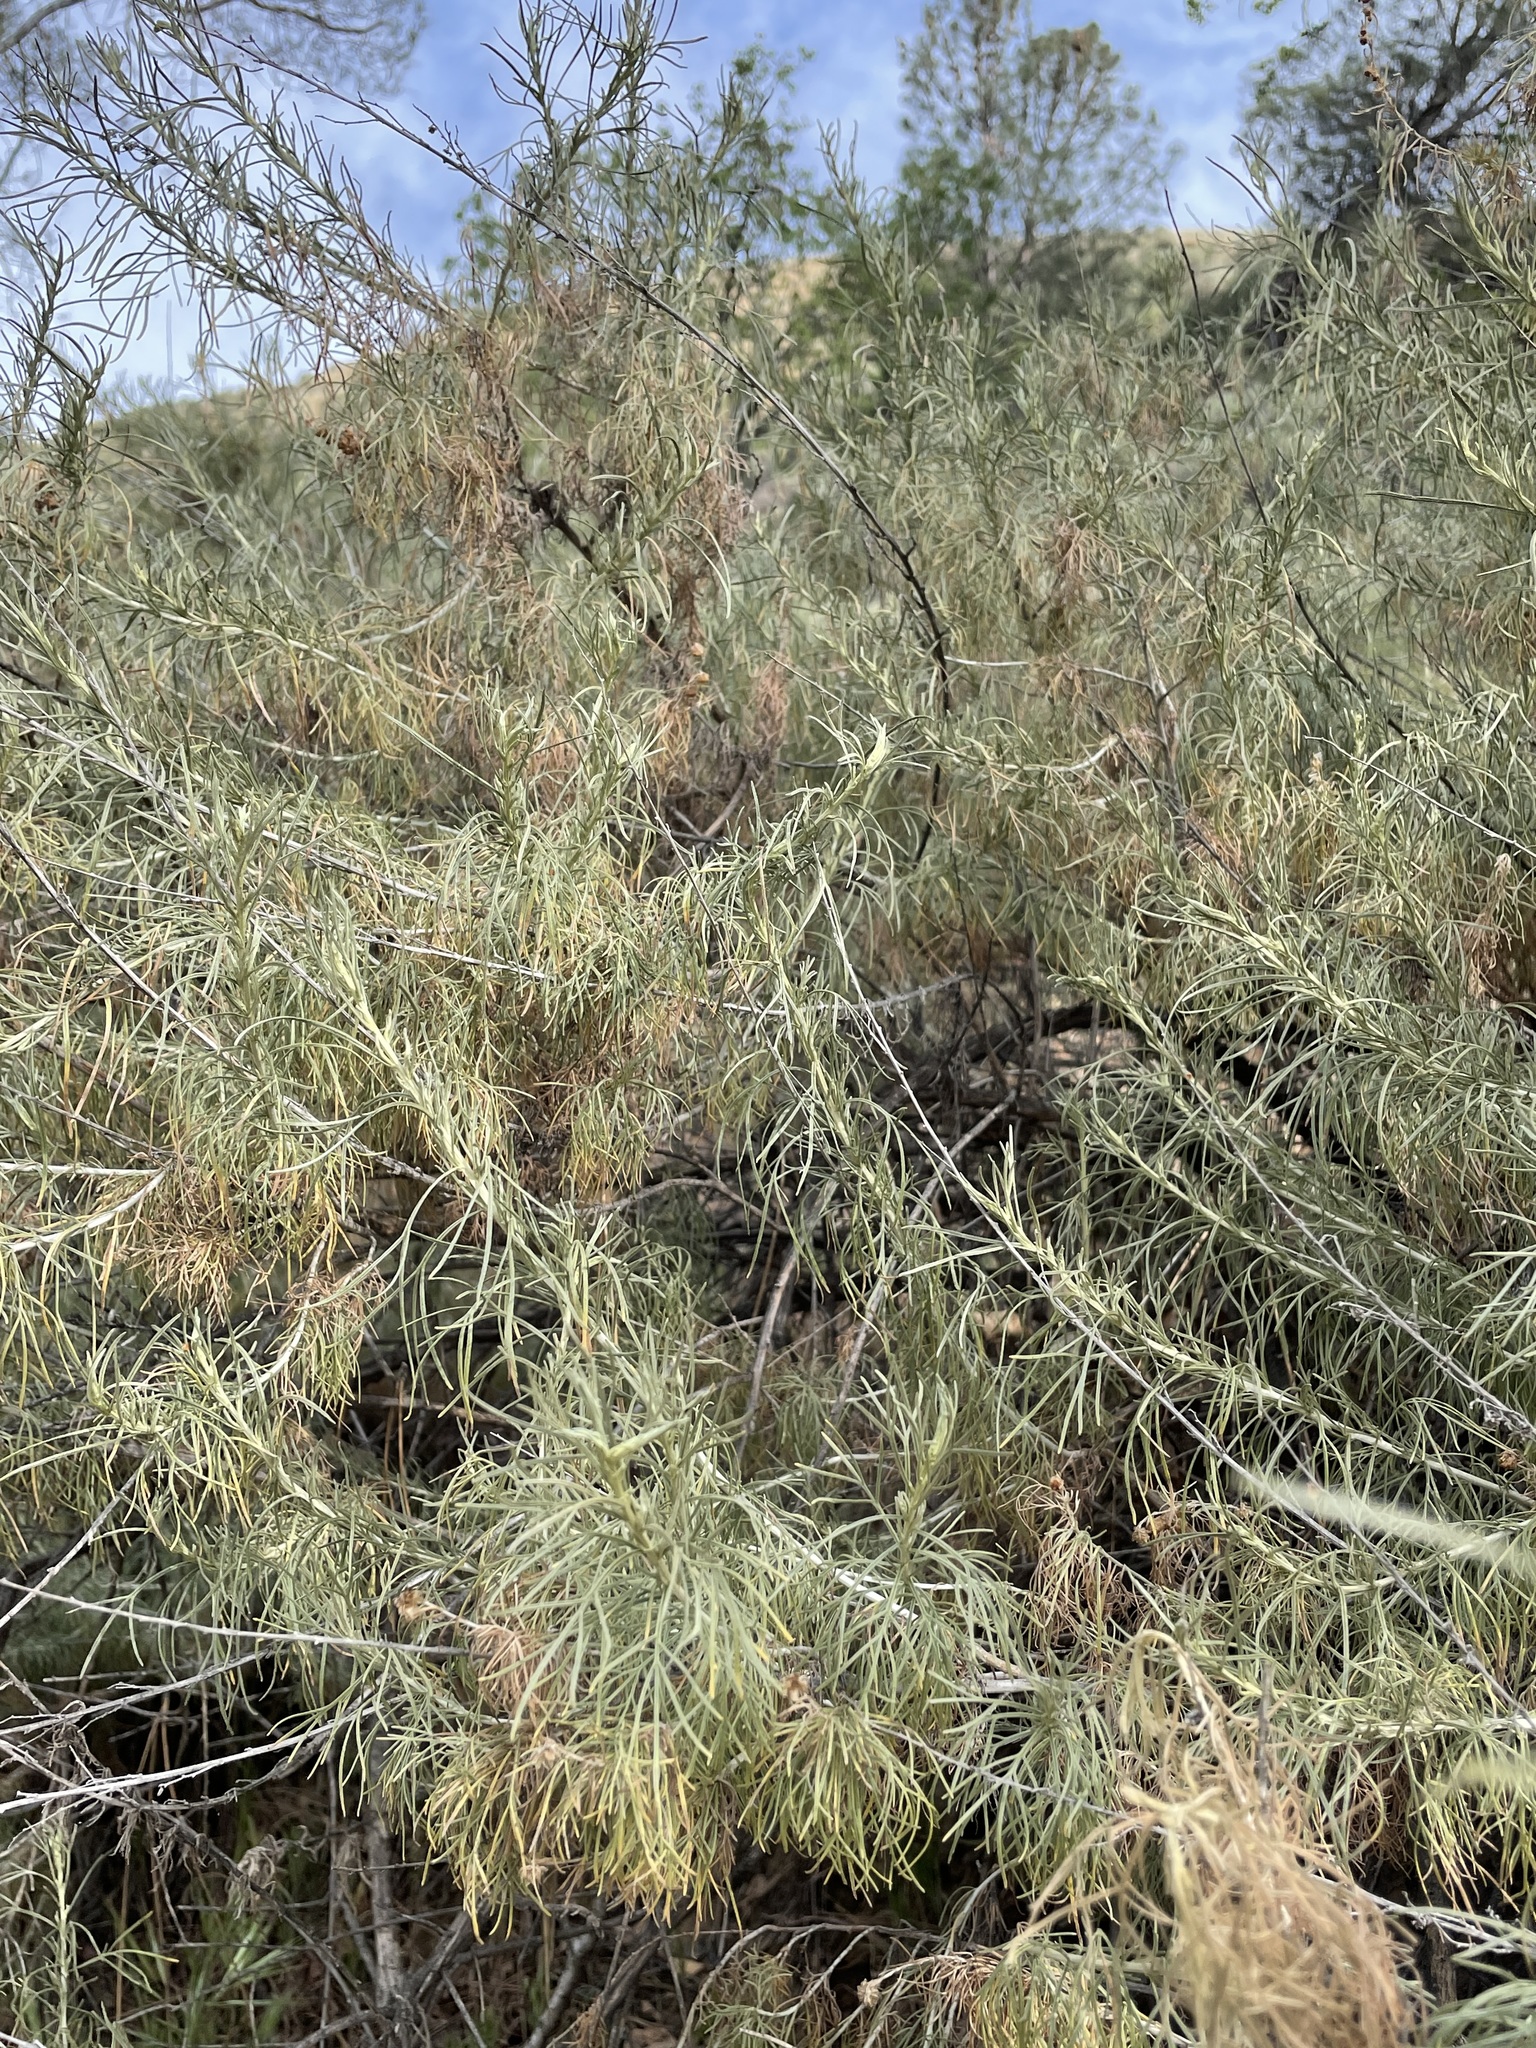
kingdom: Plantae
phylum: Tracheophyta
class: Magnoliopsida
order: Asterales
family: Asteraceae
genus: Artemisia
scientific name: Artemisia californica
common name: California sagebrush
